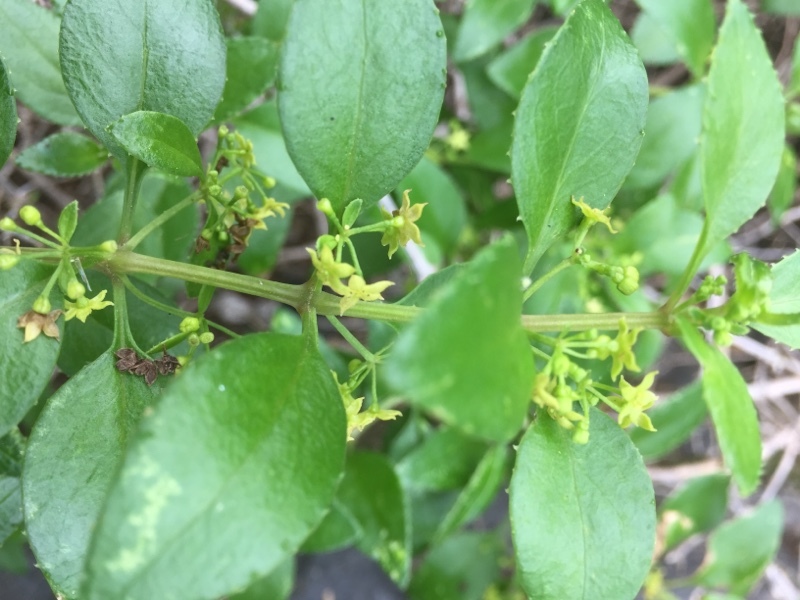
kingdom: Plantae
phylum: Tracheophyta
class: Magnoliopsida
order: Gentianales
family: Rubiaceae
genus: Rubia
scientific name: Rubia fruticosa
